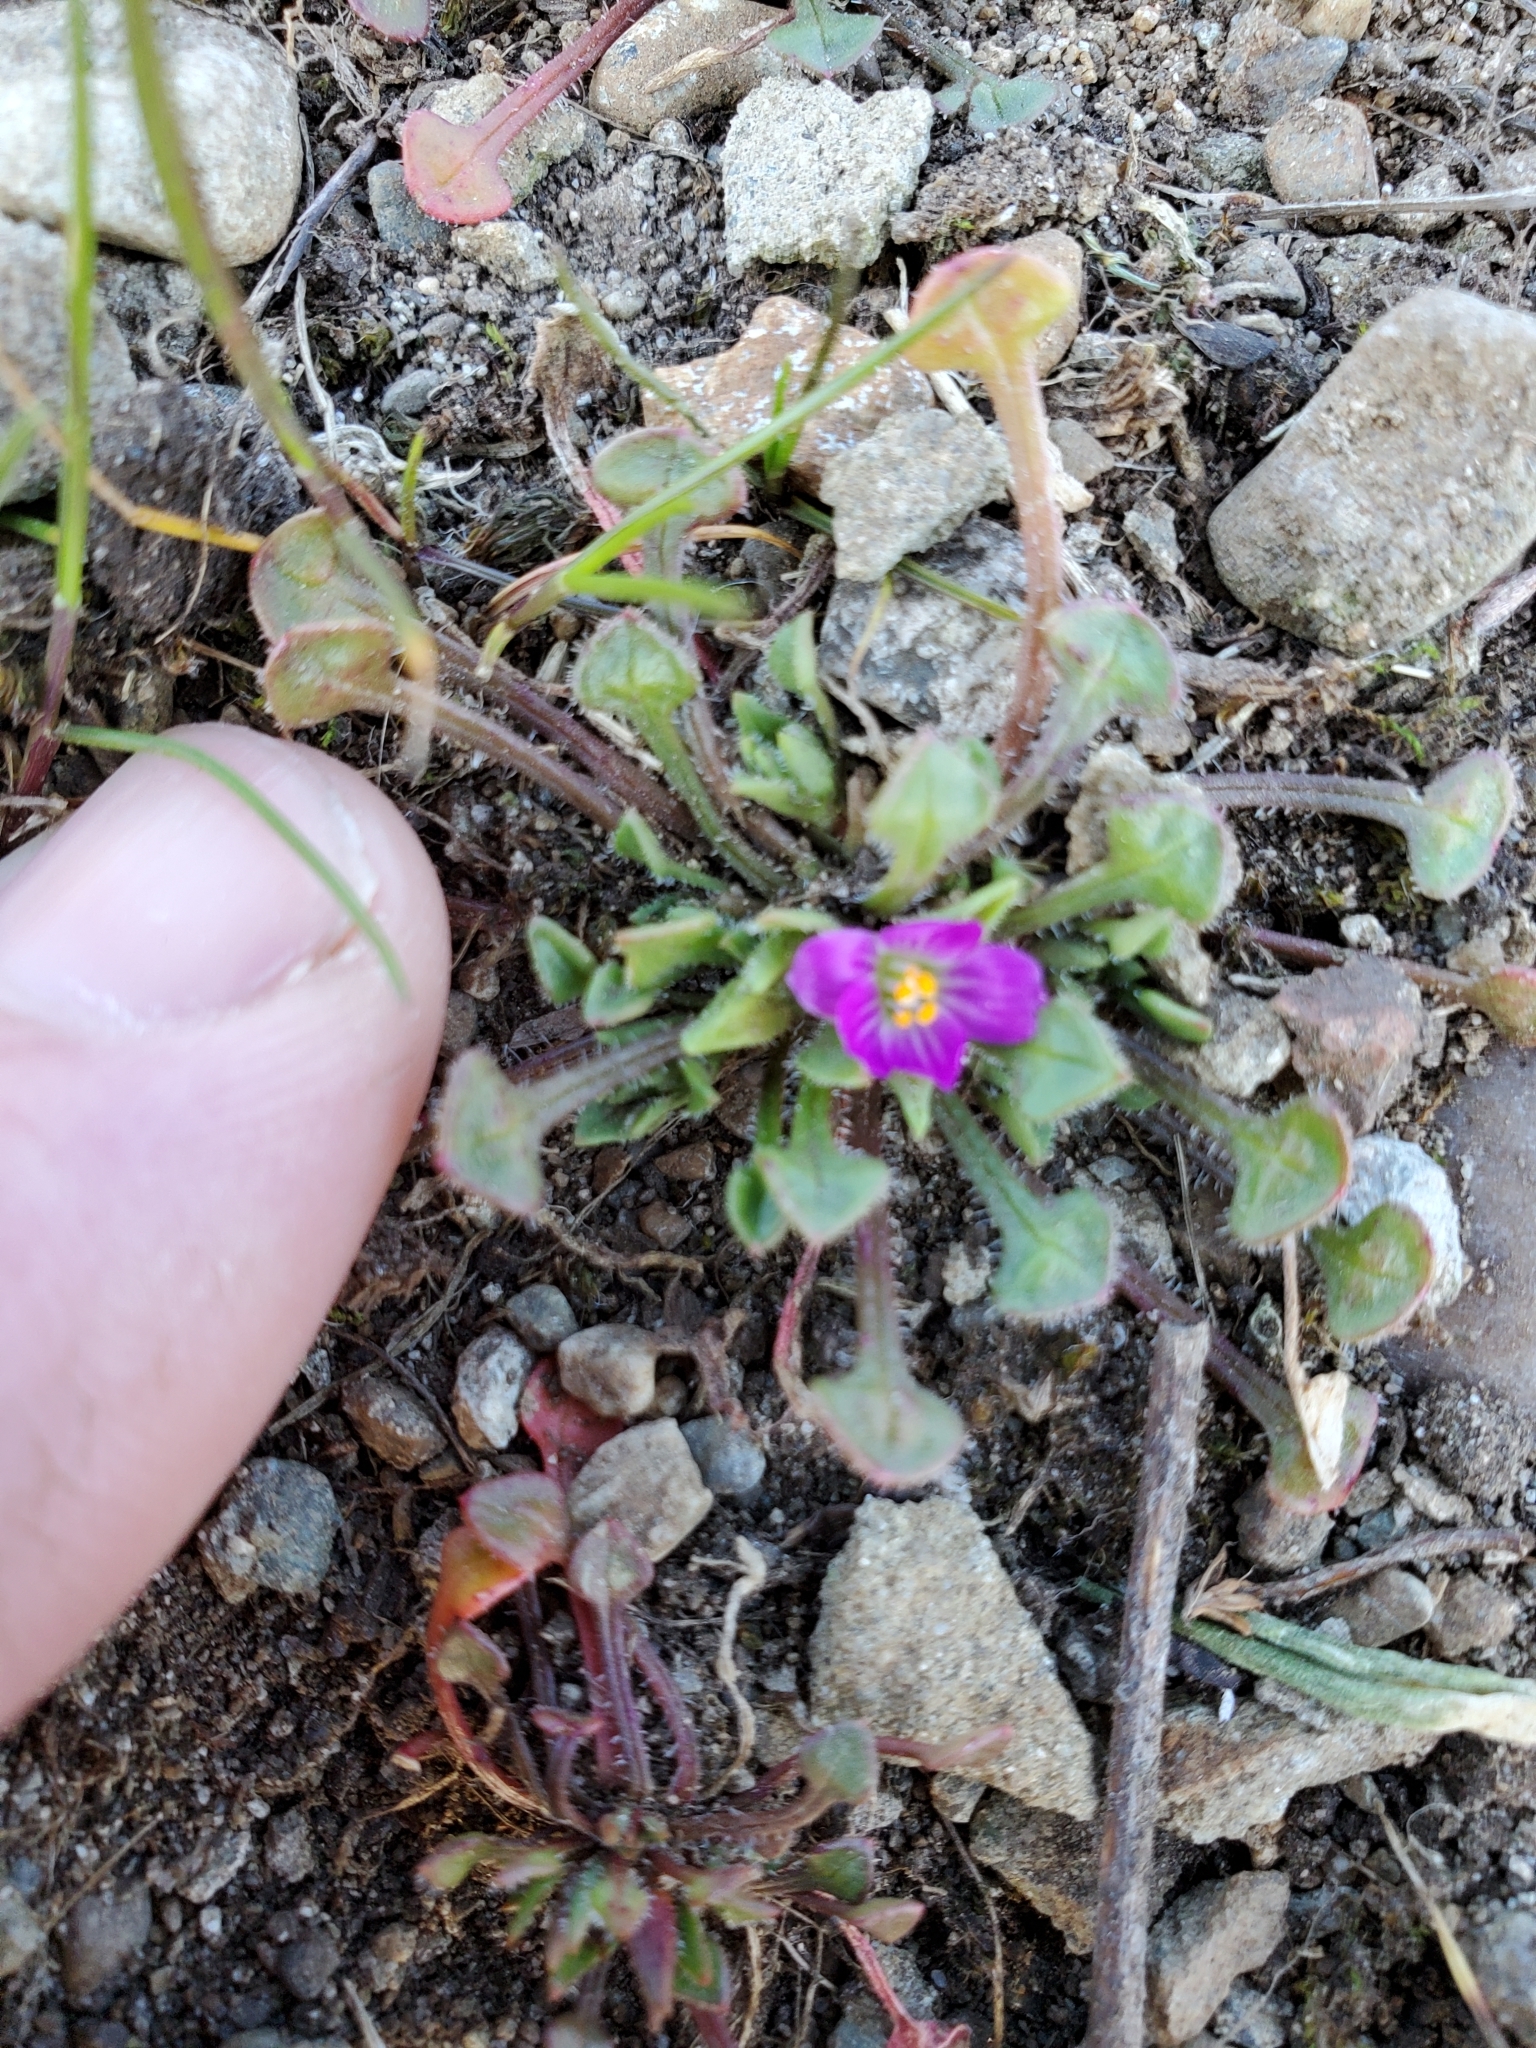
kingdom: Plantae
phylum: Tracheophyta
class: Magnoliopsida
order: Caryophyllales
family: Montiaceae
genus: Calandrinia
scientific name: Calandrinia menziesii
